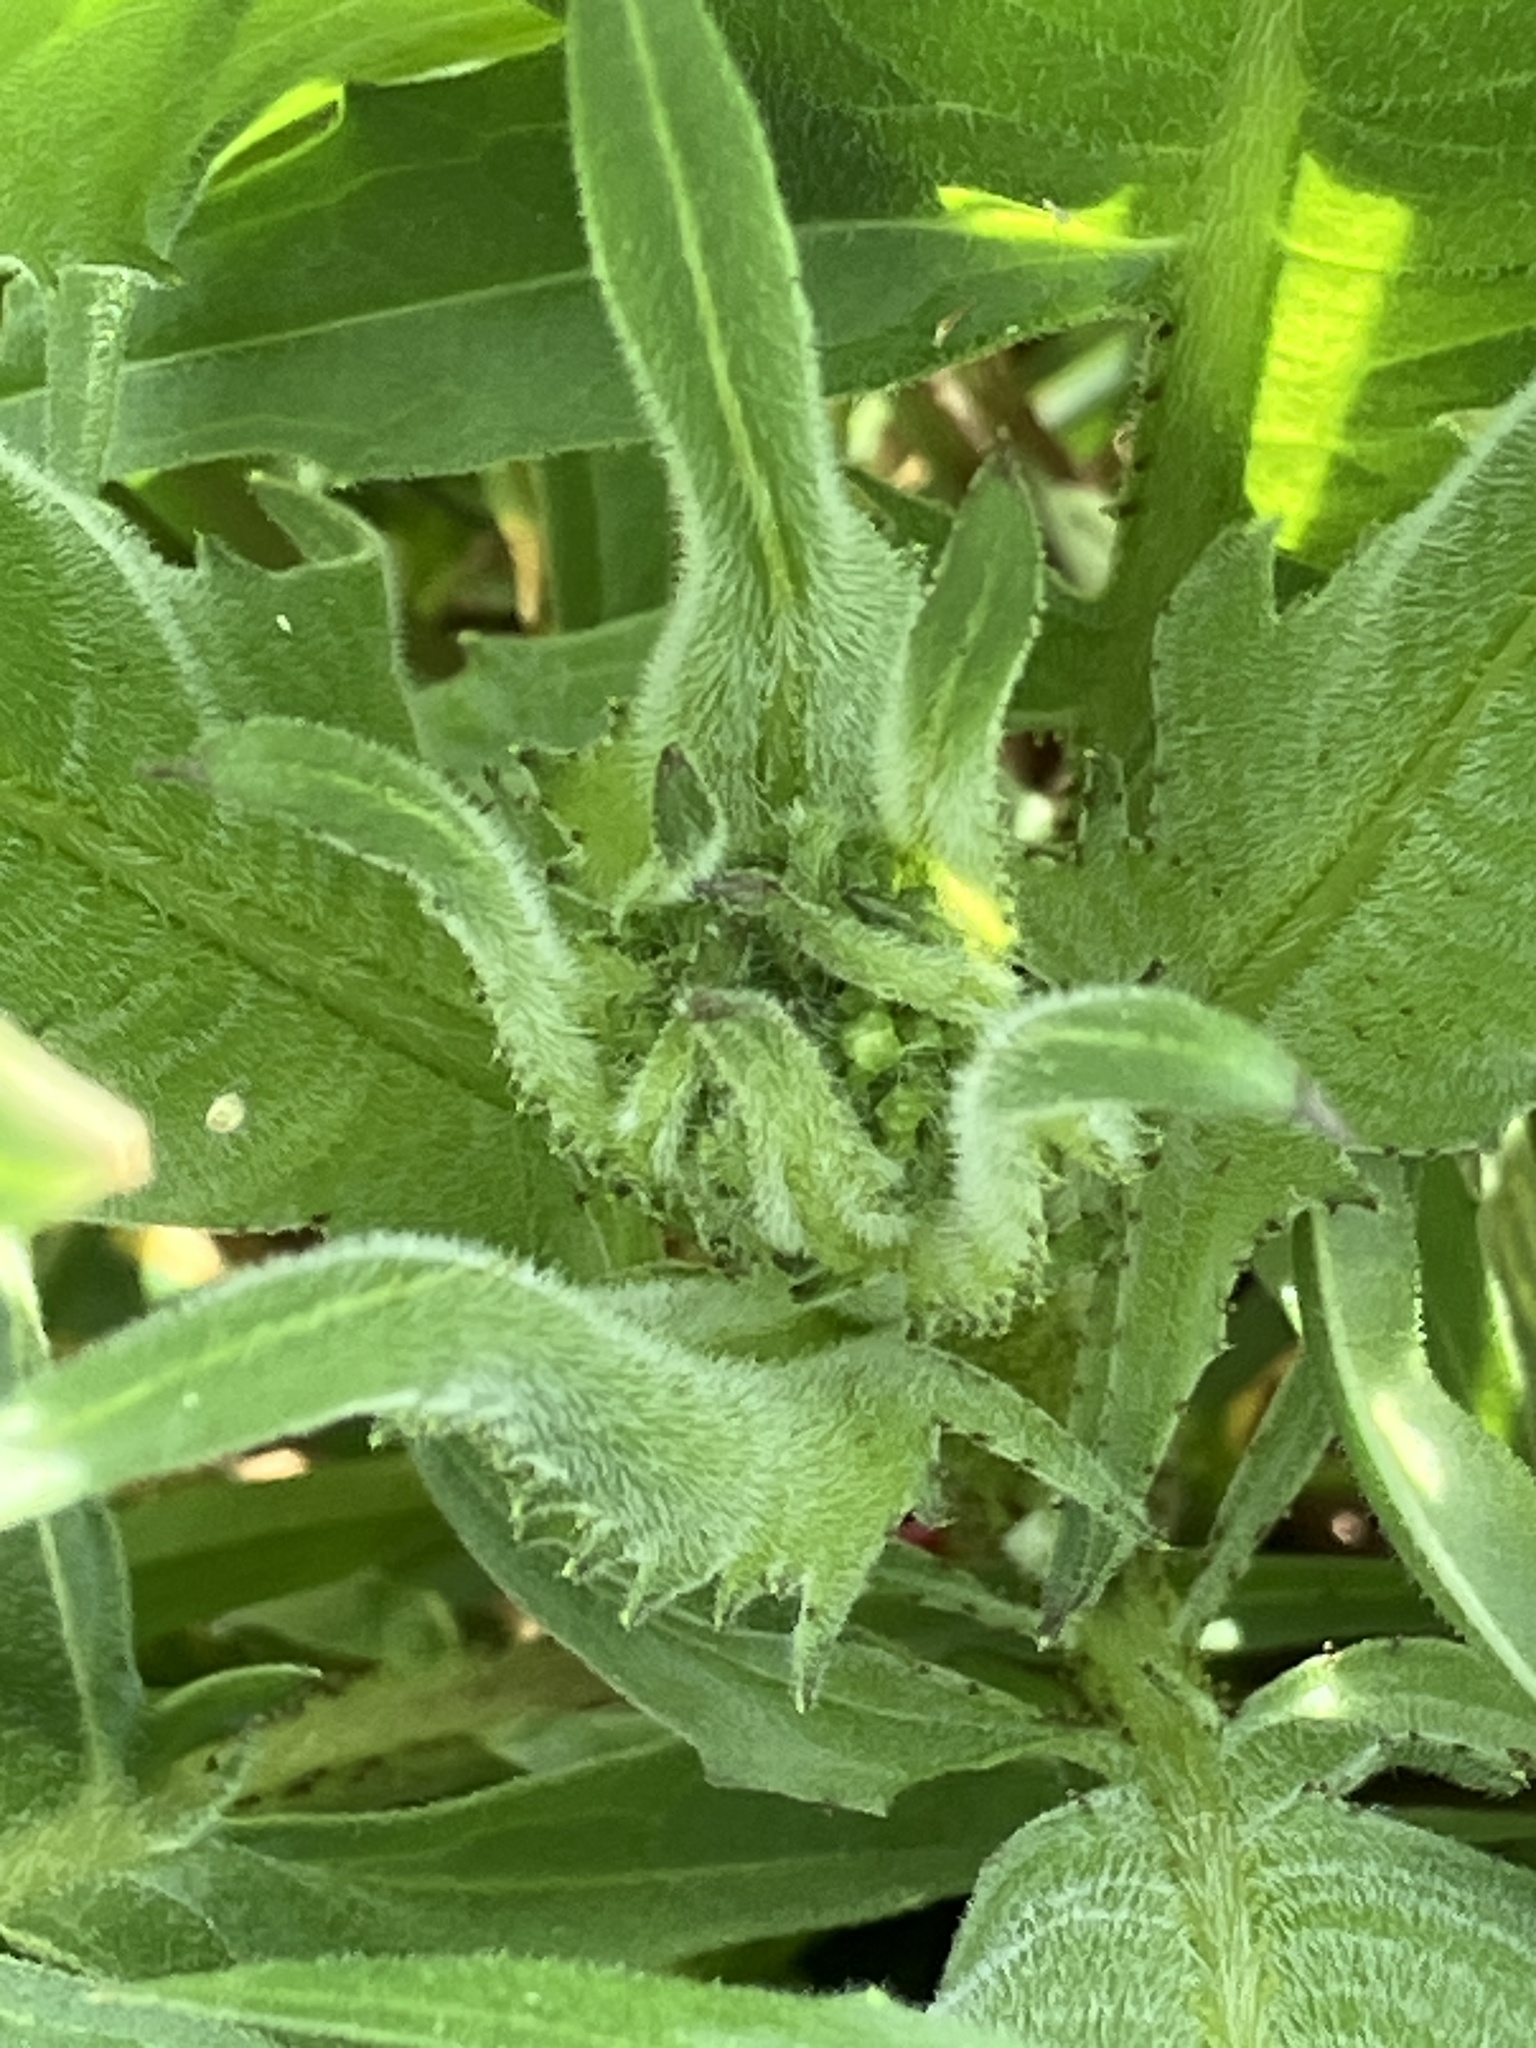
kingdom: Plantae
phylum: Tracheophyta
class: Magnoliopsida
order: Brassicales
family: Brassicaceae
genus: Bunias
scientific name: Bunias orientalis
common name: Warty-cabbage
